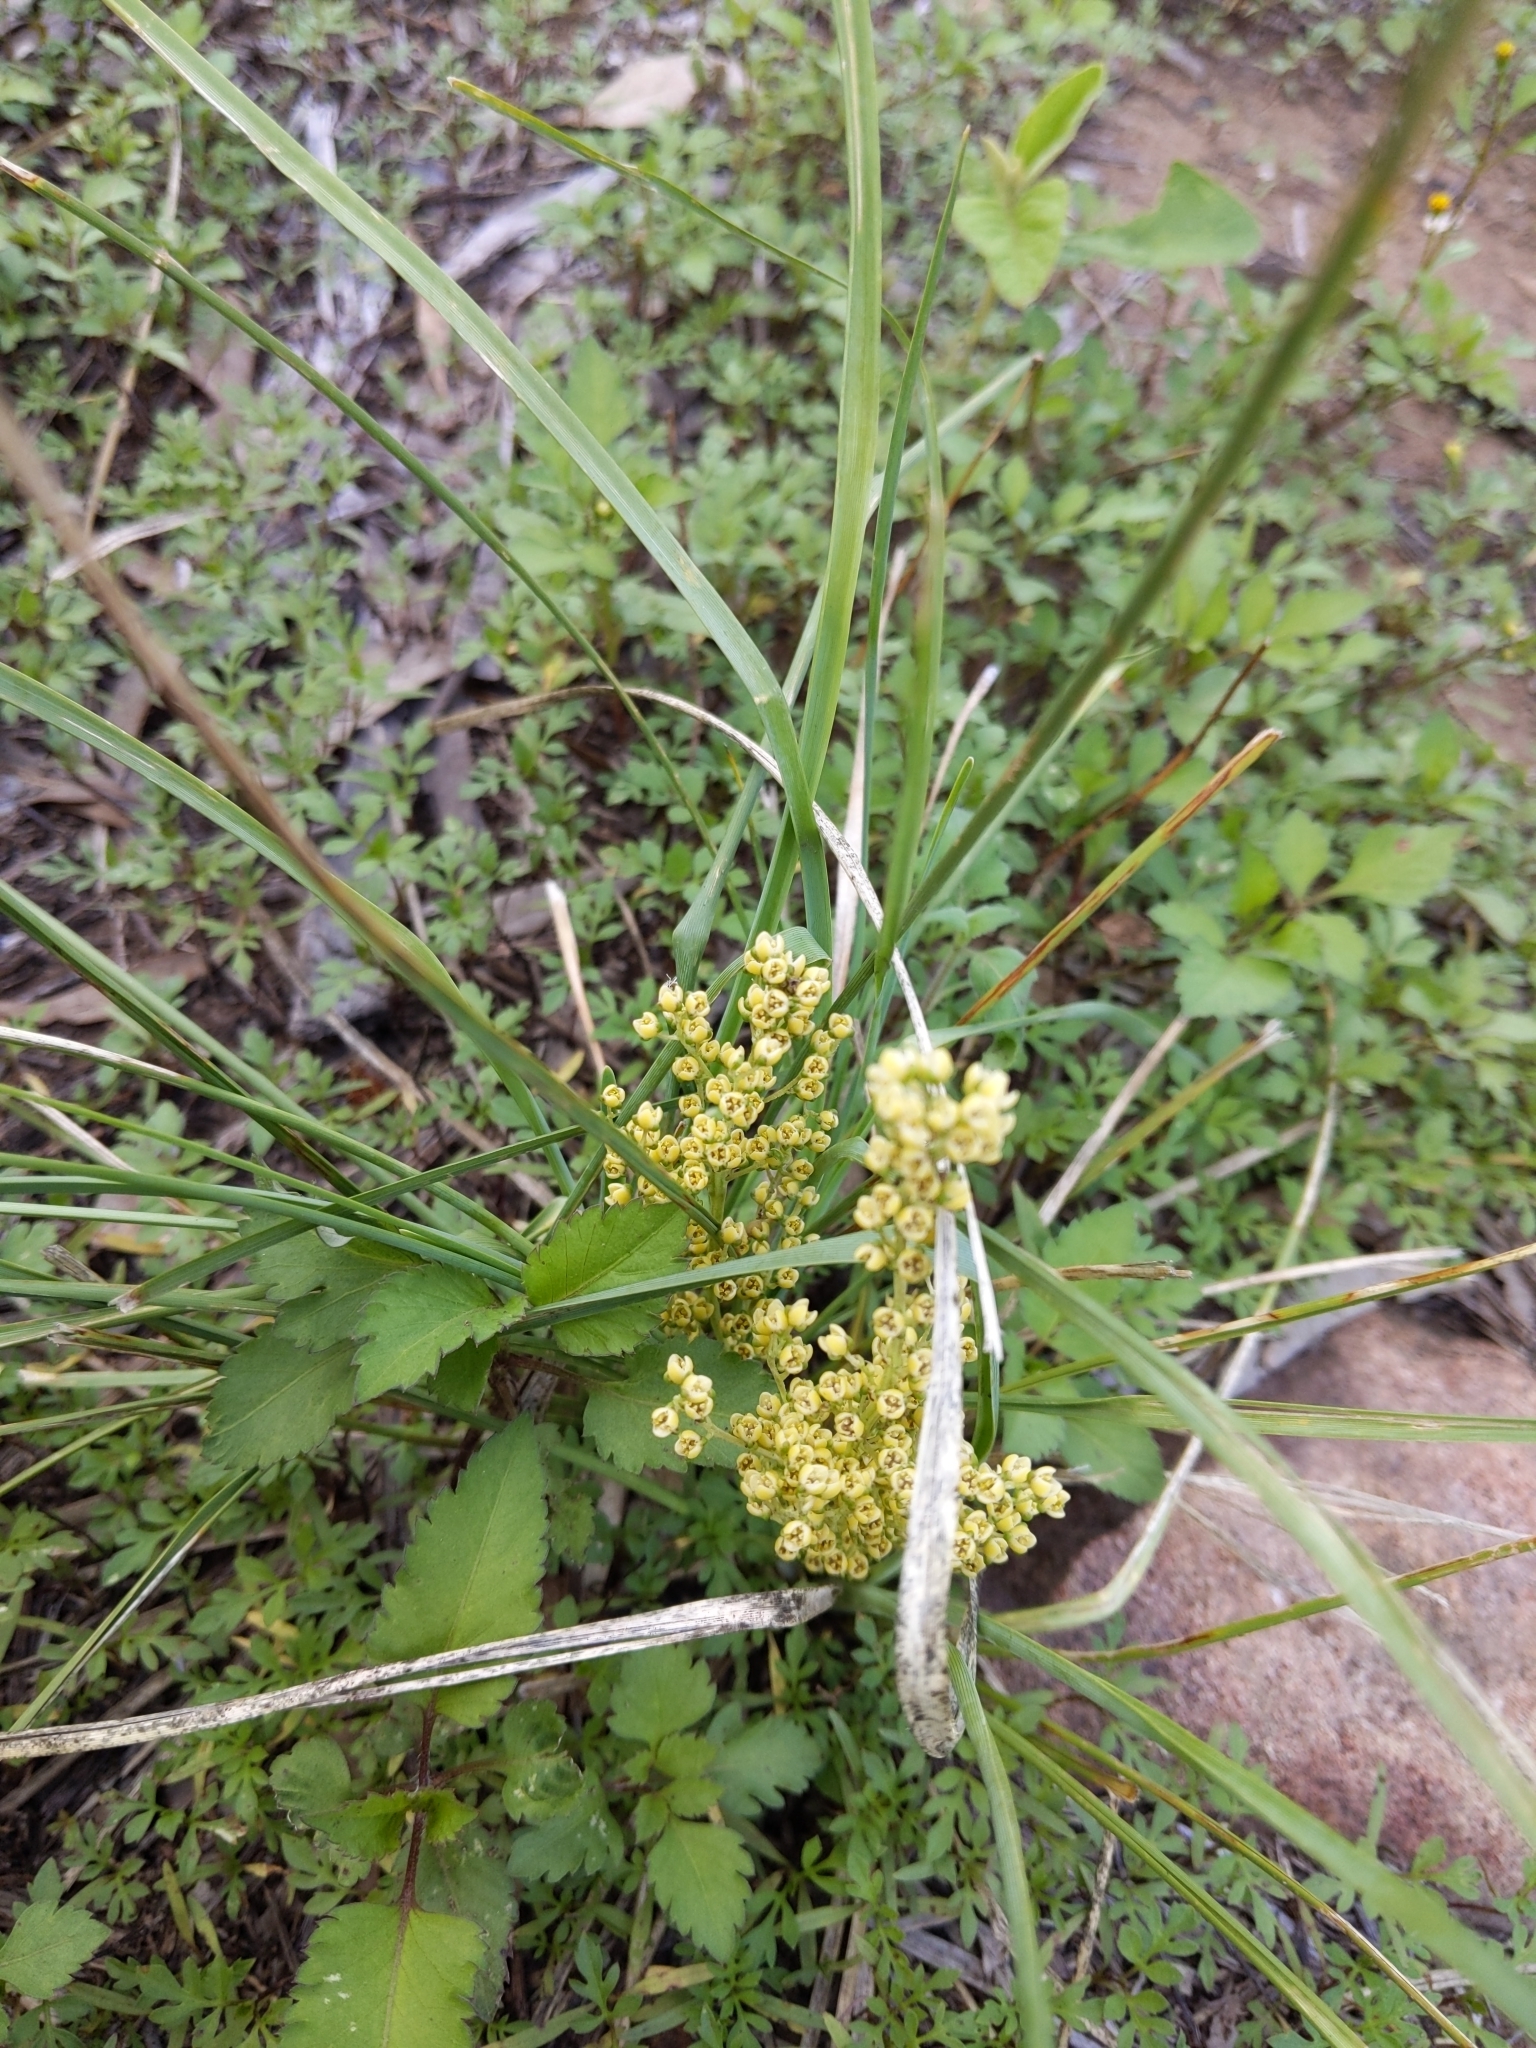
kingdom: Plantae
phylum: Tracheophyta
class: Liliopsida
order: Asparagales
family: Asparagaceae
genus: Lomandra
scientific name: Lomandra filiformis
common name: Wattle mat-rush
